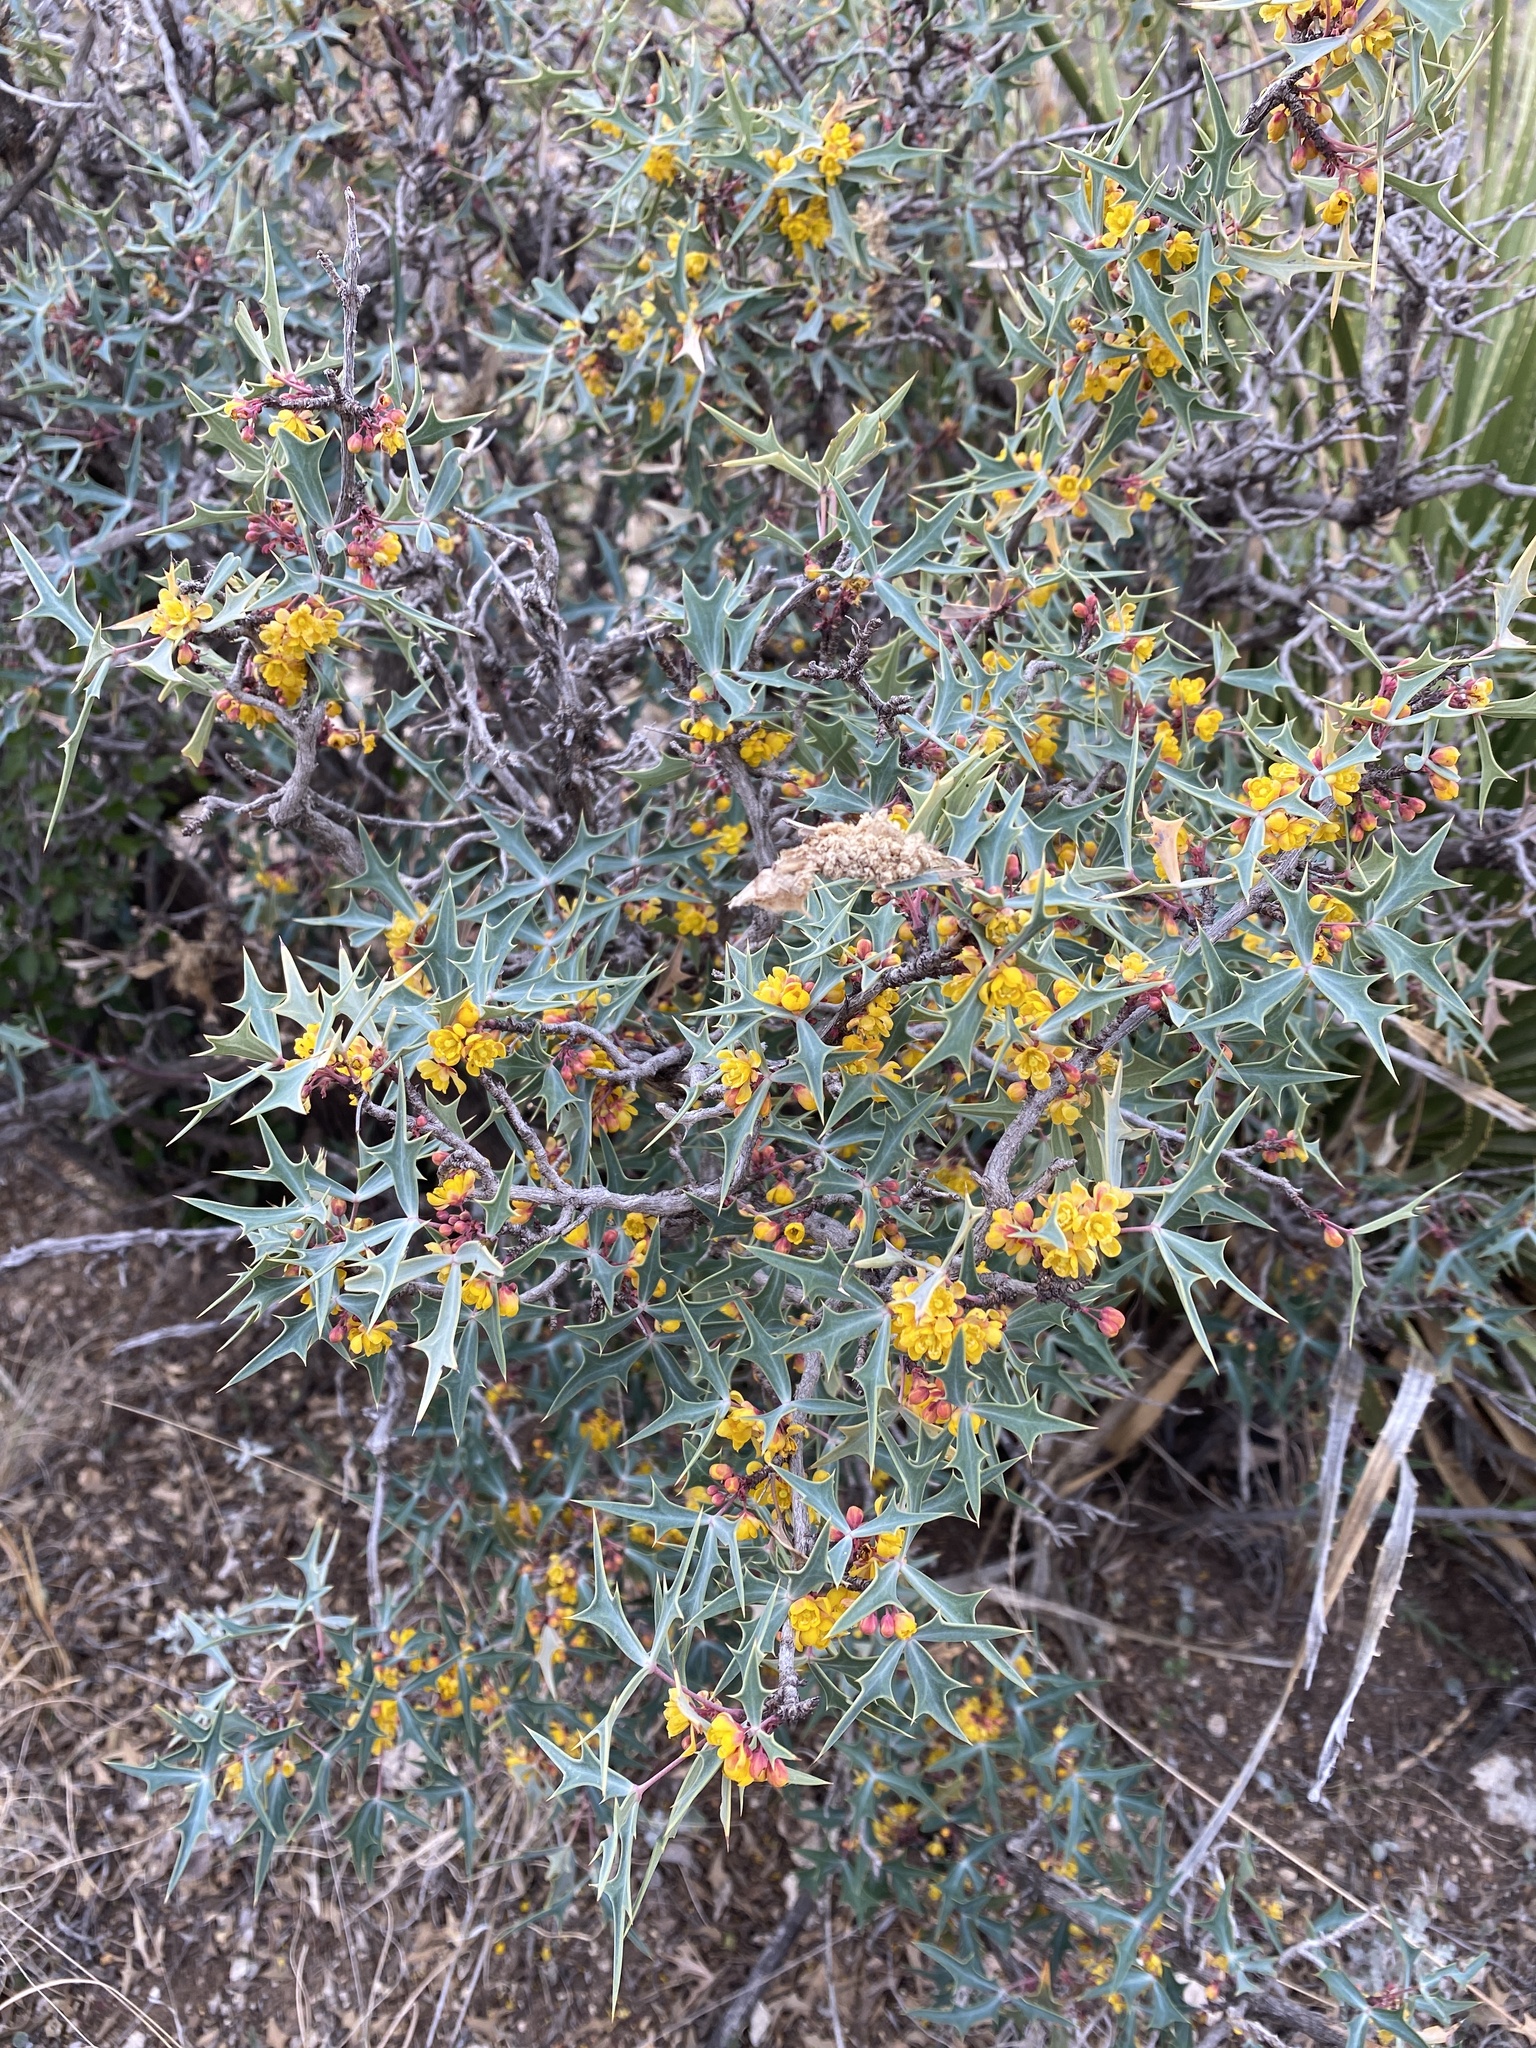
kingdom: Plantae
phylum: Tracheophyta
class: Magnoliopsida
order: Ranunculales
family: Berberidaceae
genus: Alloberberis
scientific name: Alloberberis trifoliolata
